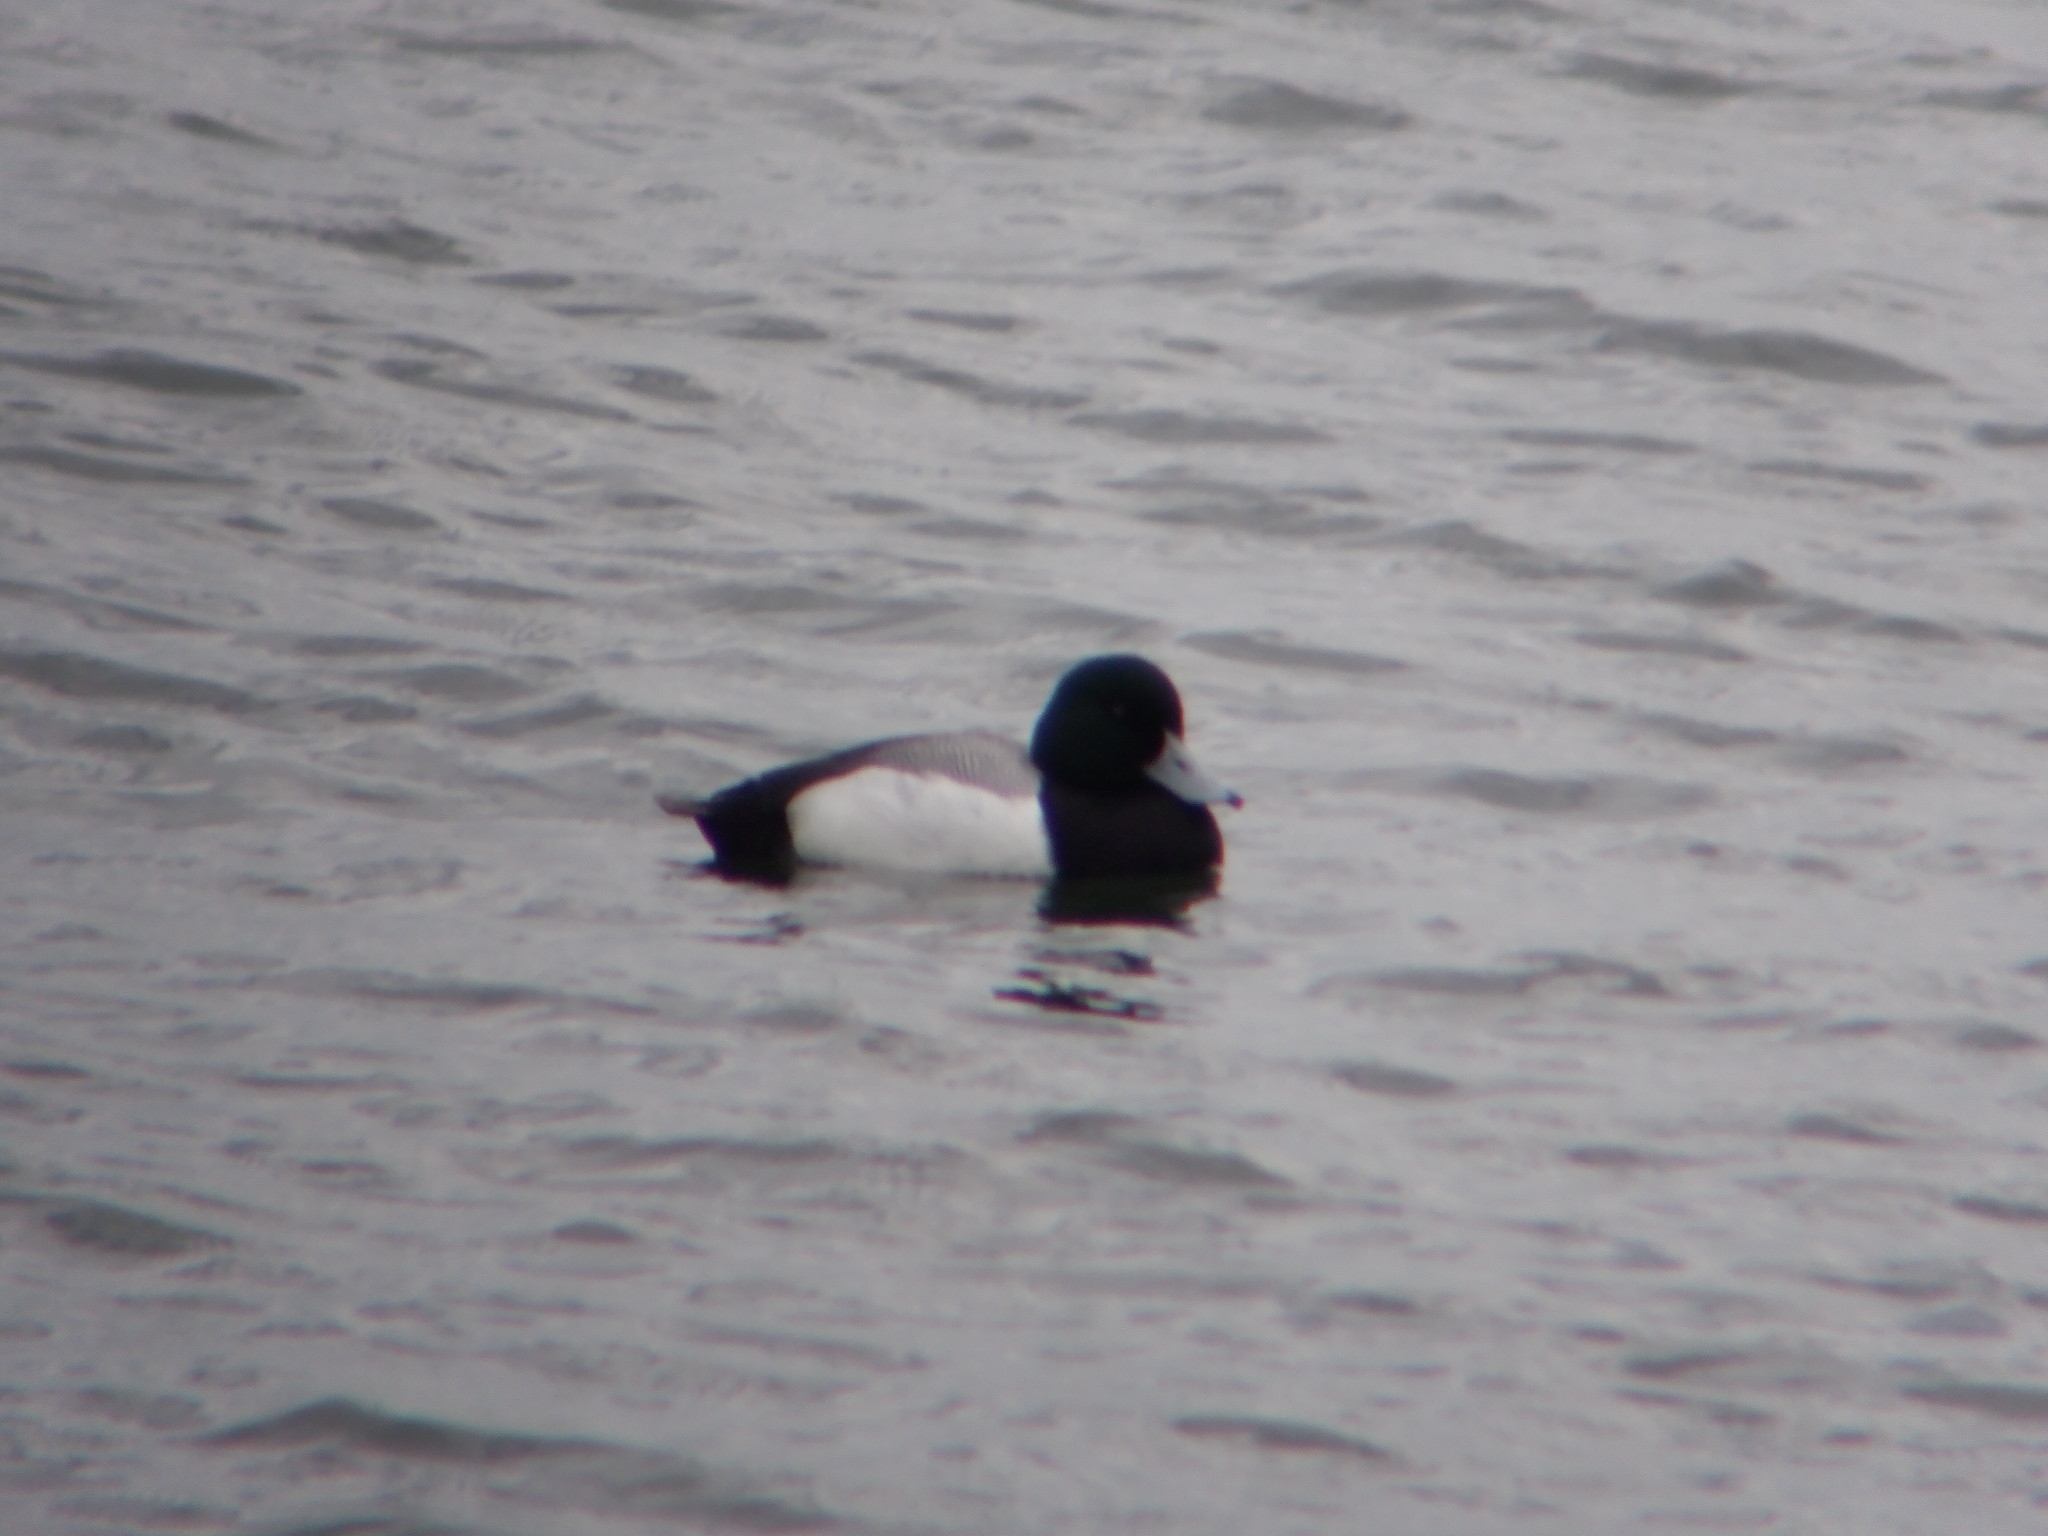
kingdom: Animalia
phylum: Chordata
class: Aves
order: Anseriformes
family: Anatidae
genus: Aythya
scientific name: Aythya marila
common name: Greater scaup
